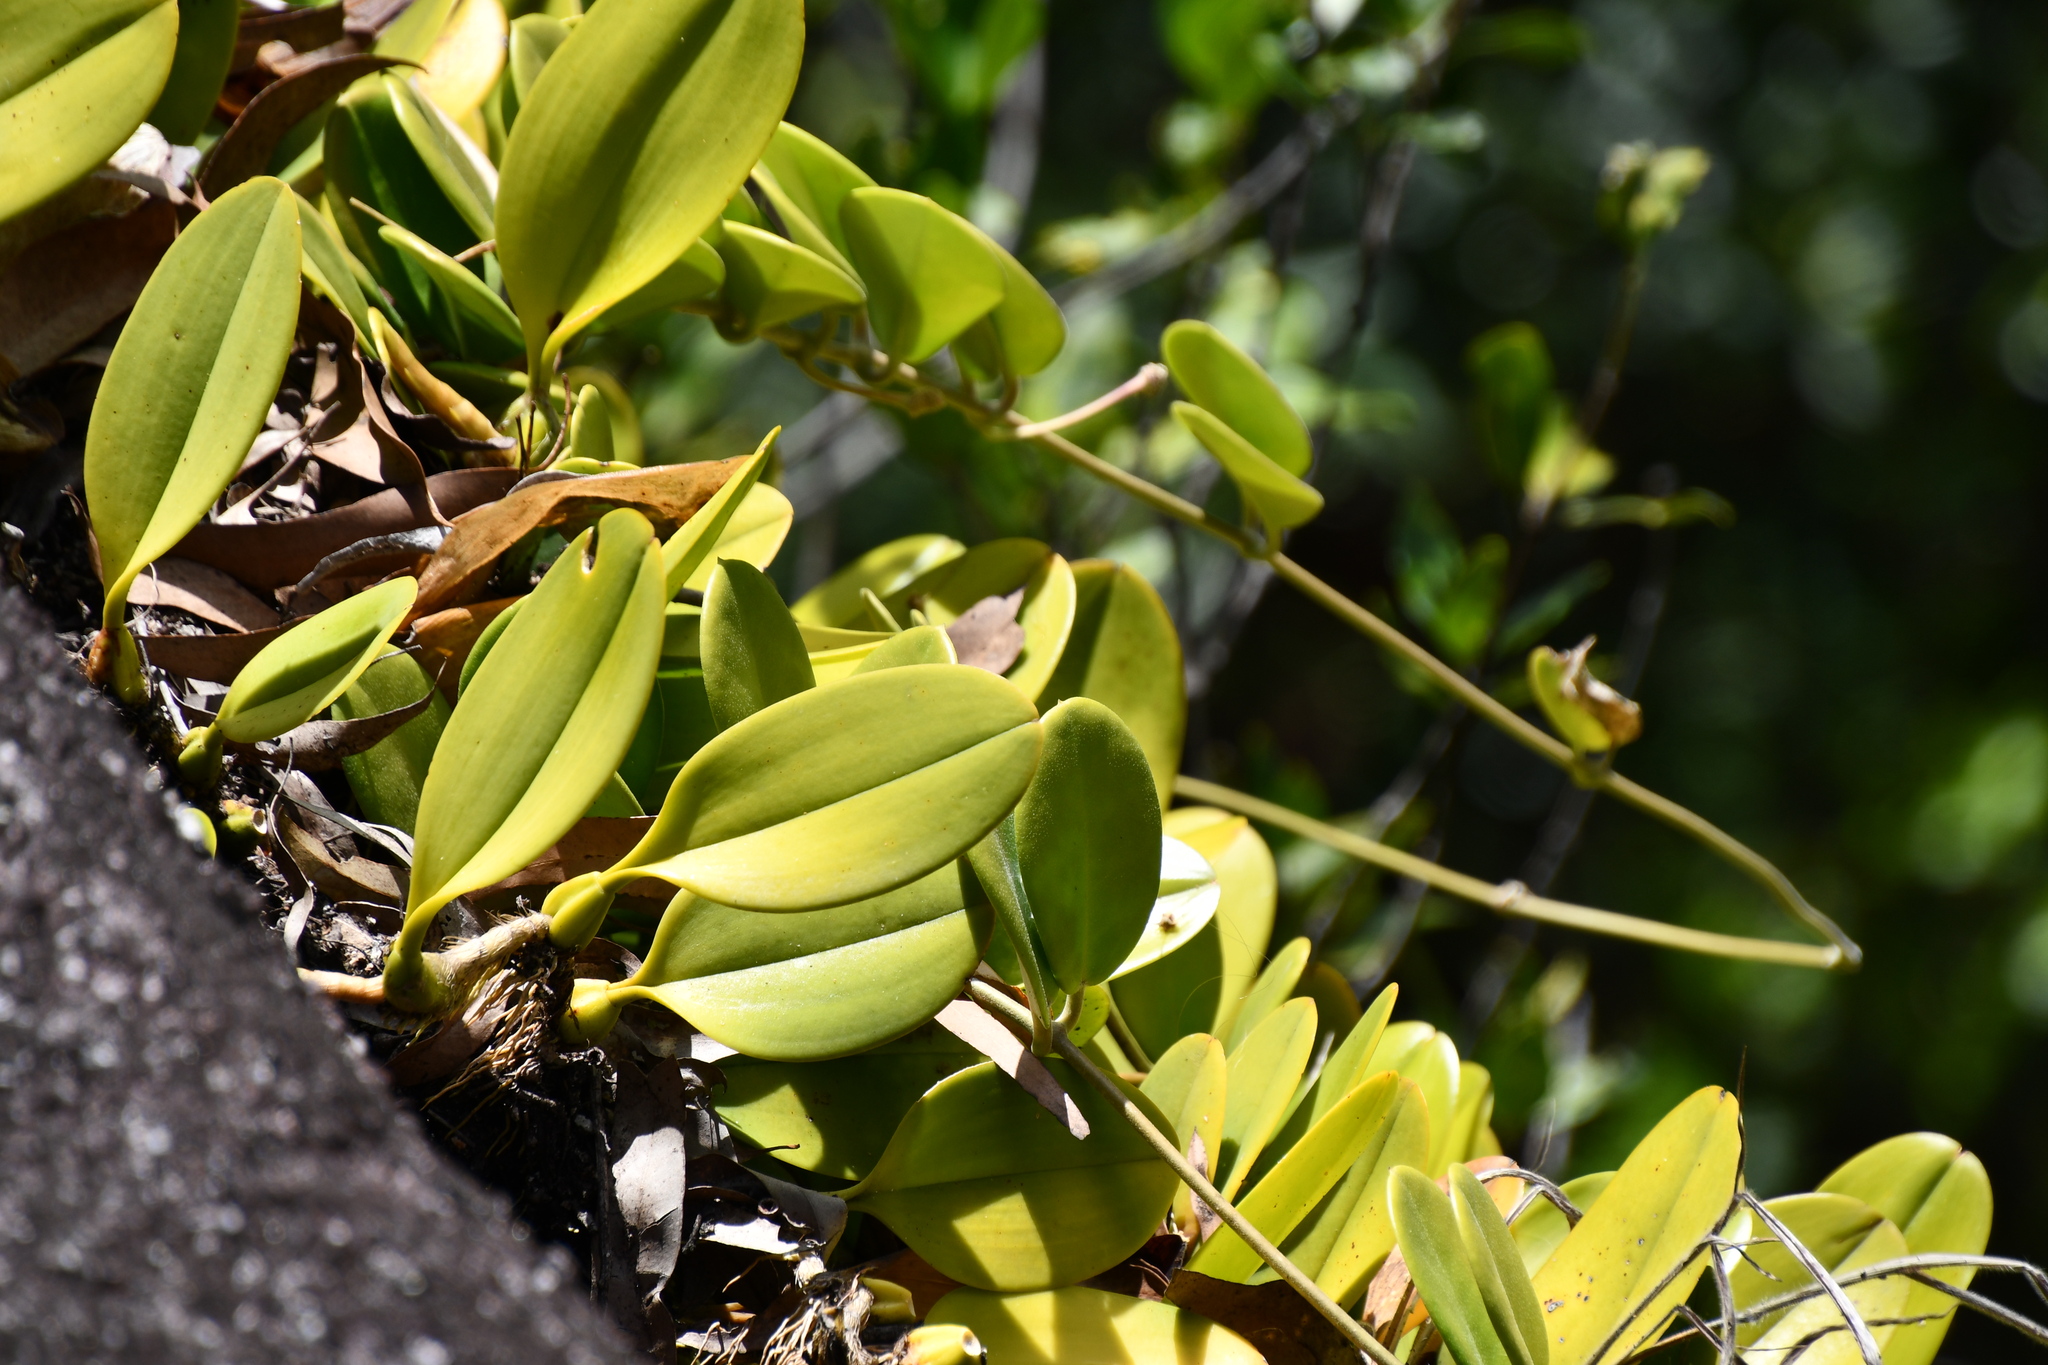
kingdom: Plantae
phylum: Tracheophyta
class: Liliopsida
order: Asparagales
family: Orchidaceae
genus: Bulbophyllum
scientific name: Bulbophyllum baileyi
